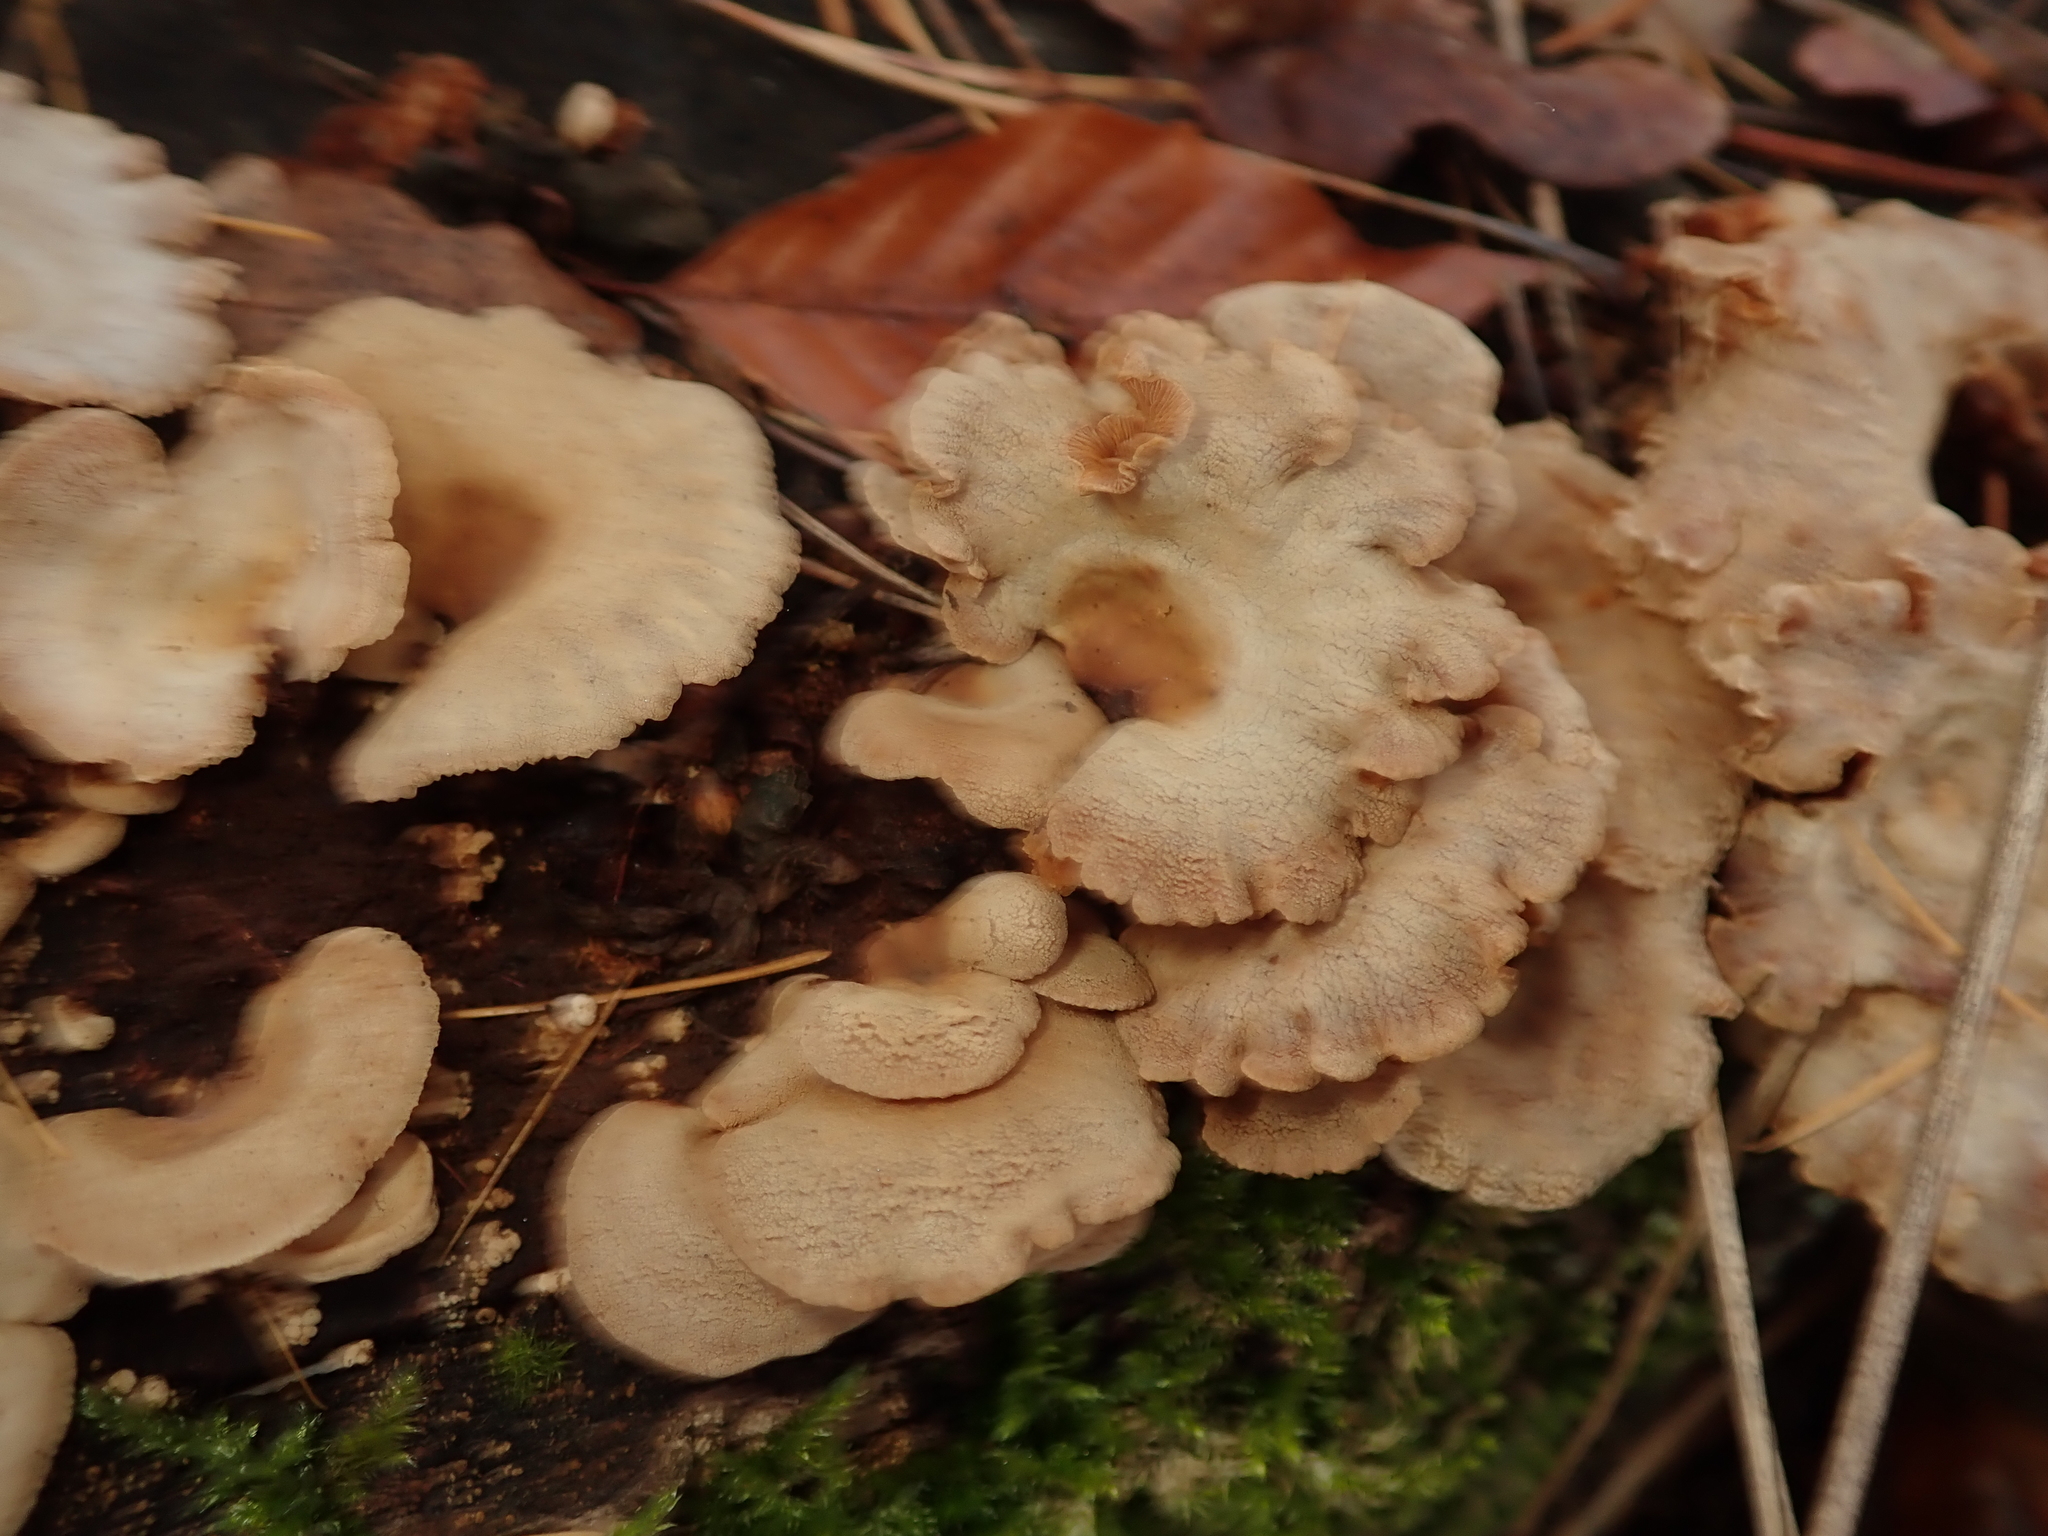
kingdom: Fungi
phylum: Basidiomycota
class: Agaricomycetes
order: Agaricales
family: Mycenaceae
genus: Panellus
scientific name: Panellus stipticus
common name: Bitter oysterling
